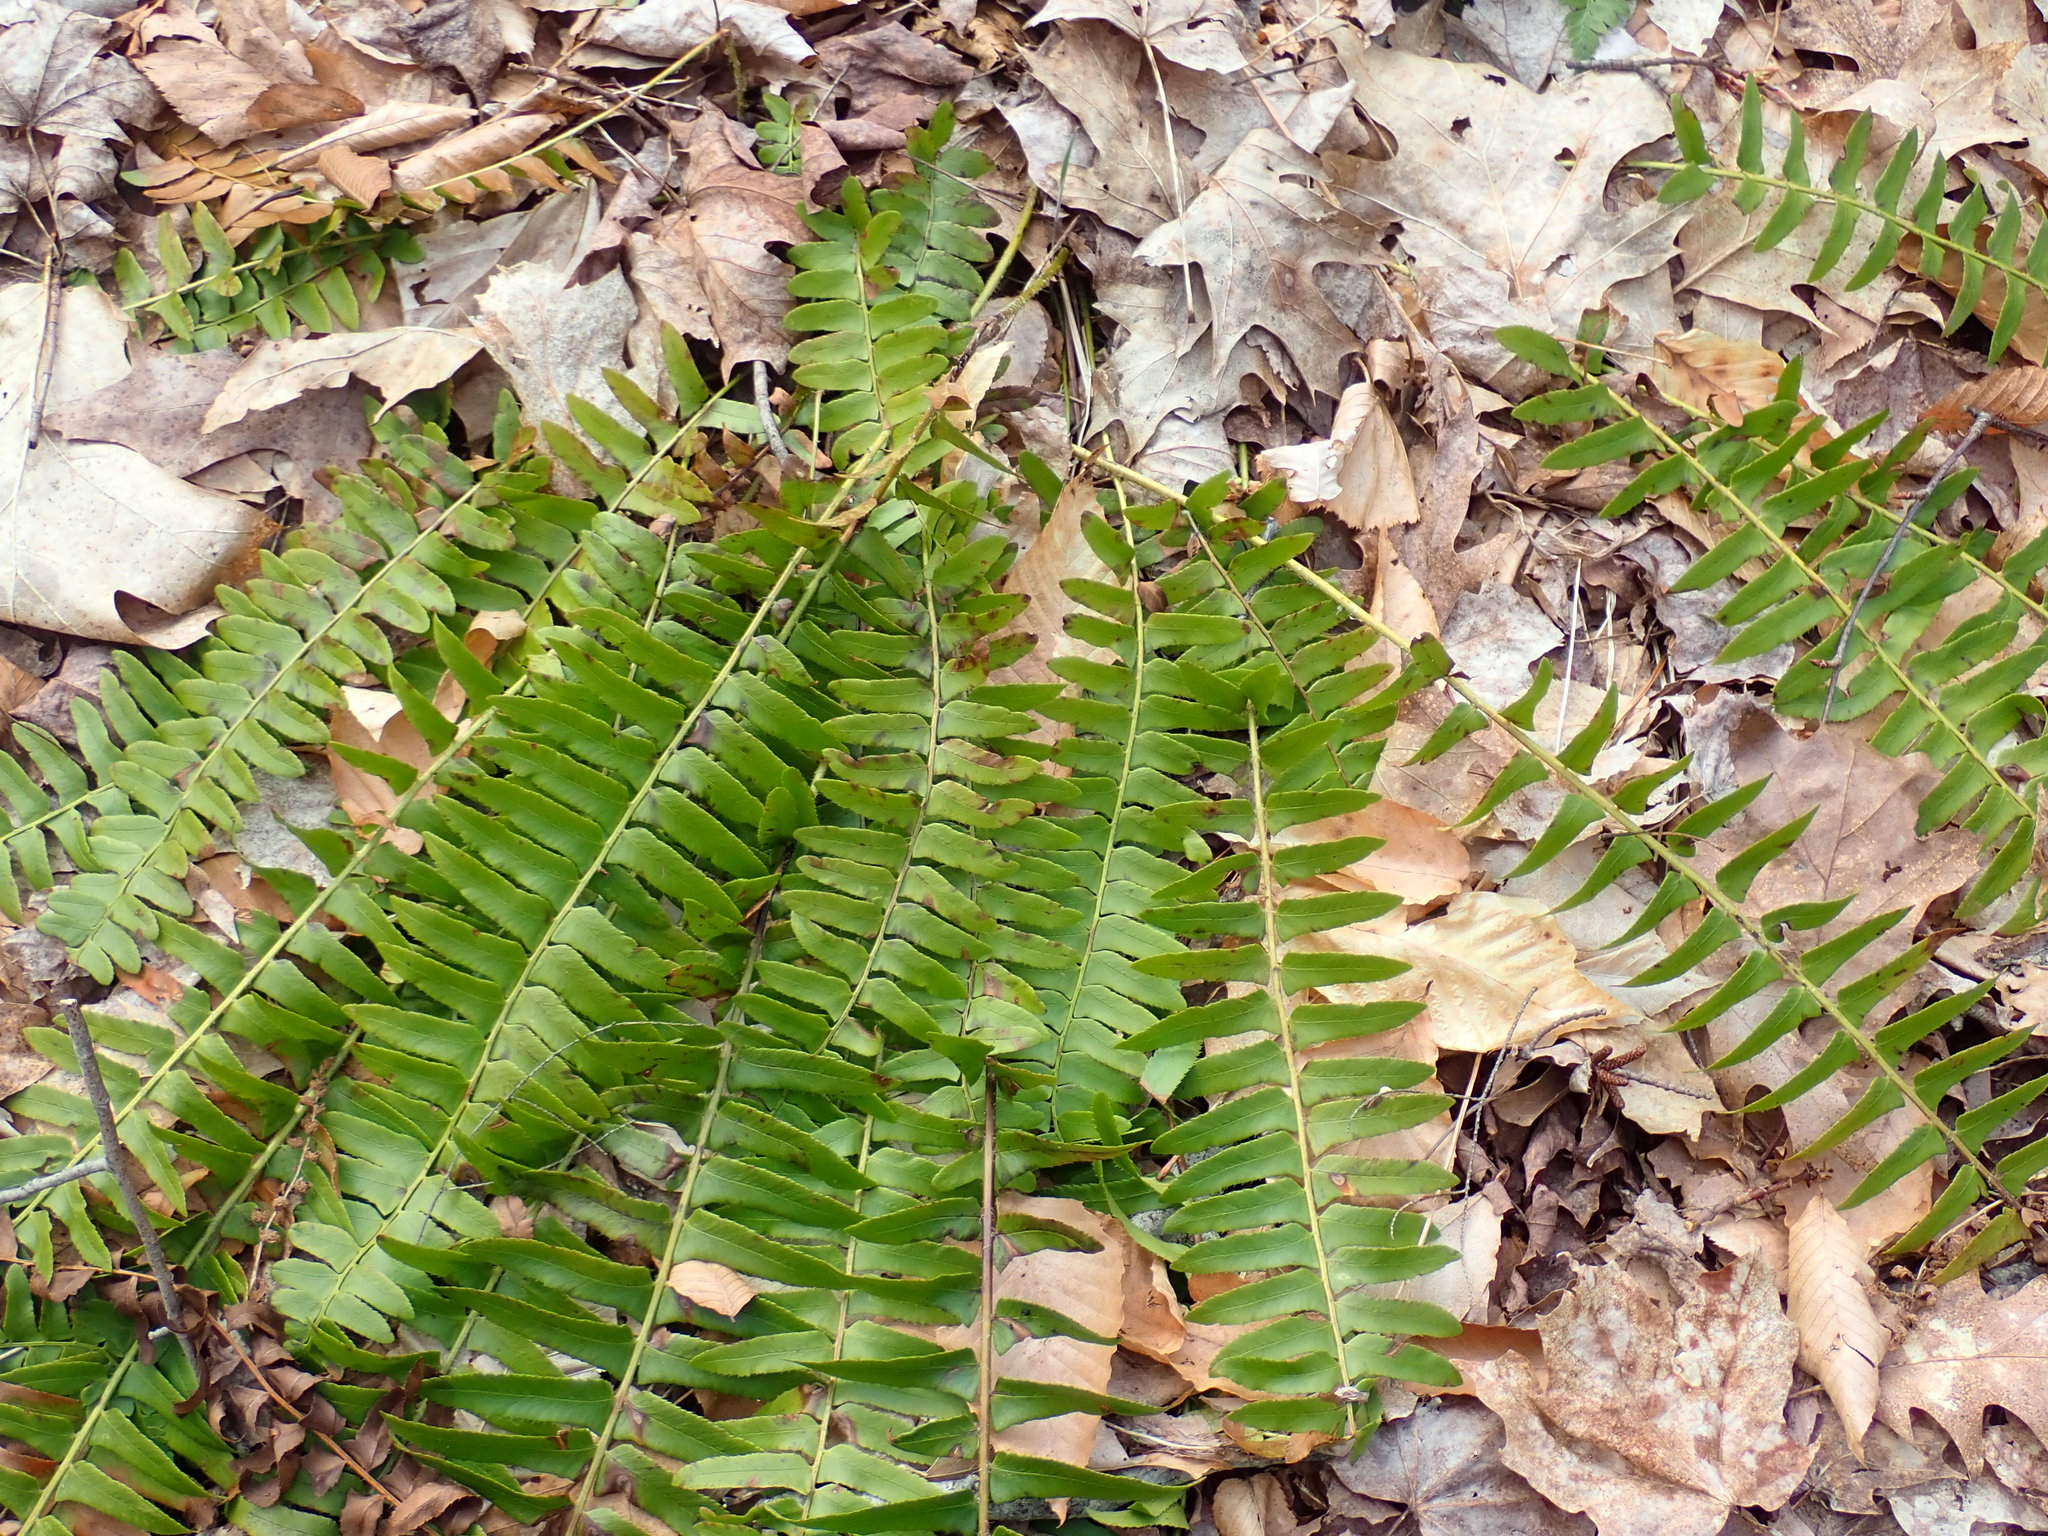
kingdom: Plantae
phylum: Tracheophyta
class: Polypodiopsida
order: Polypodiales
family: Dryopteridaceae
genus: Polystichum
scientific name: Polystichum acrostichoides
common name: Christmas fern
